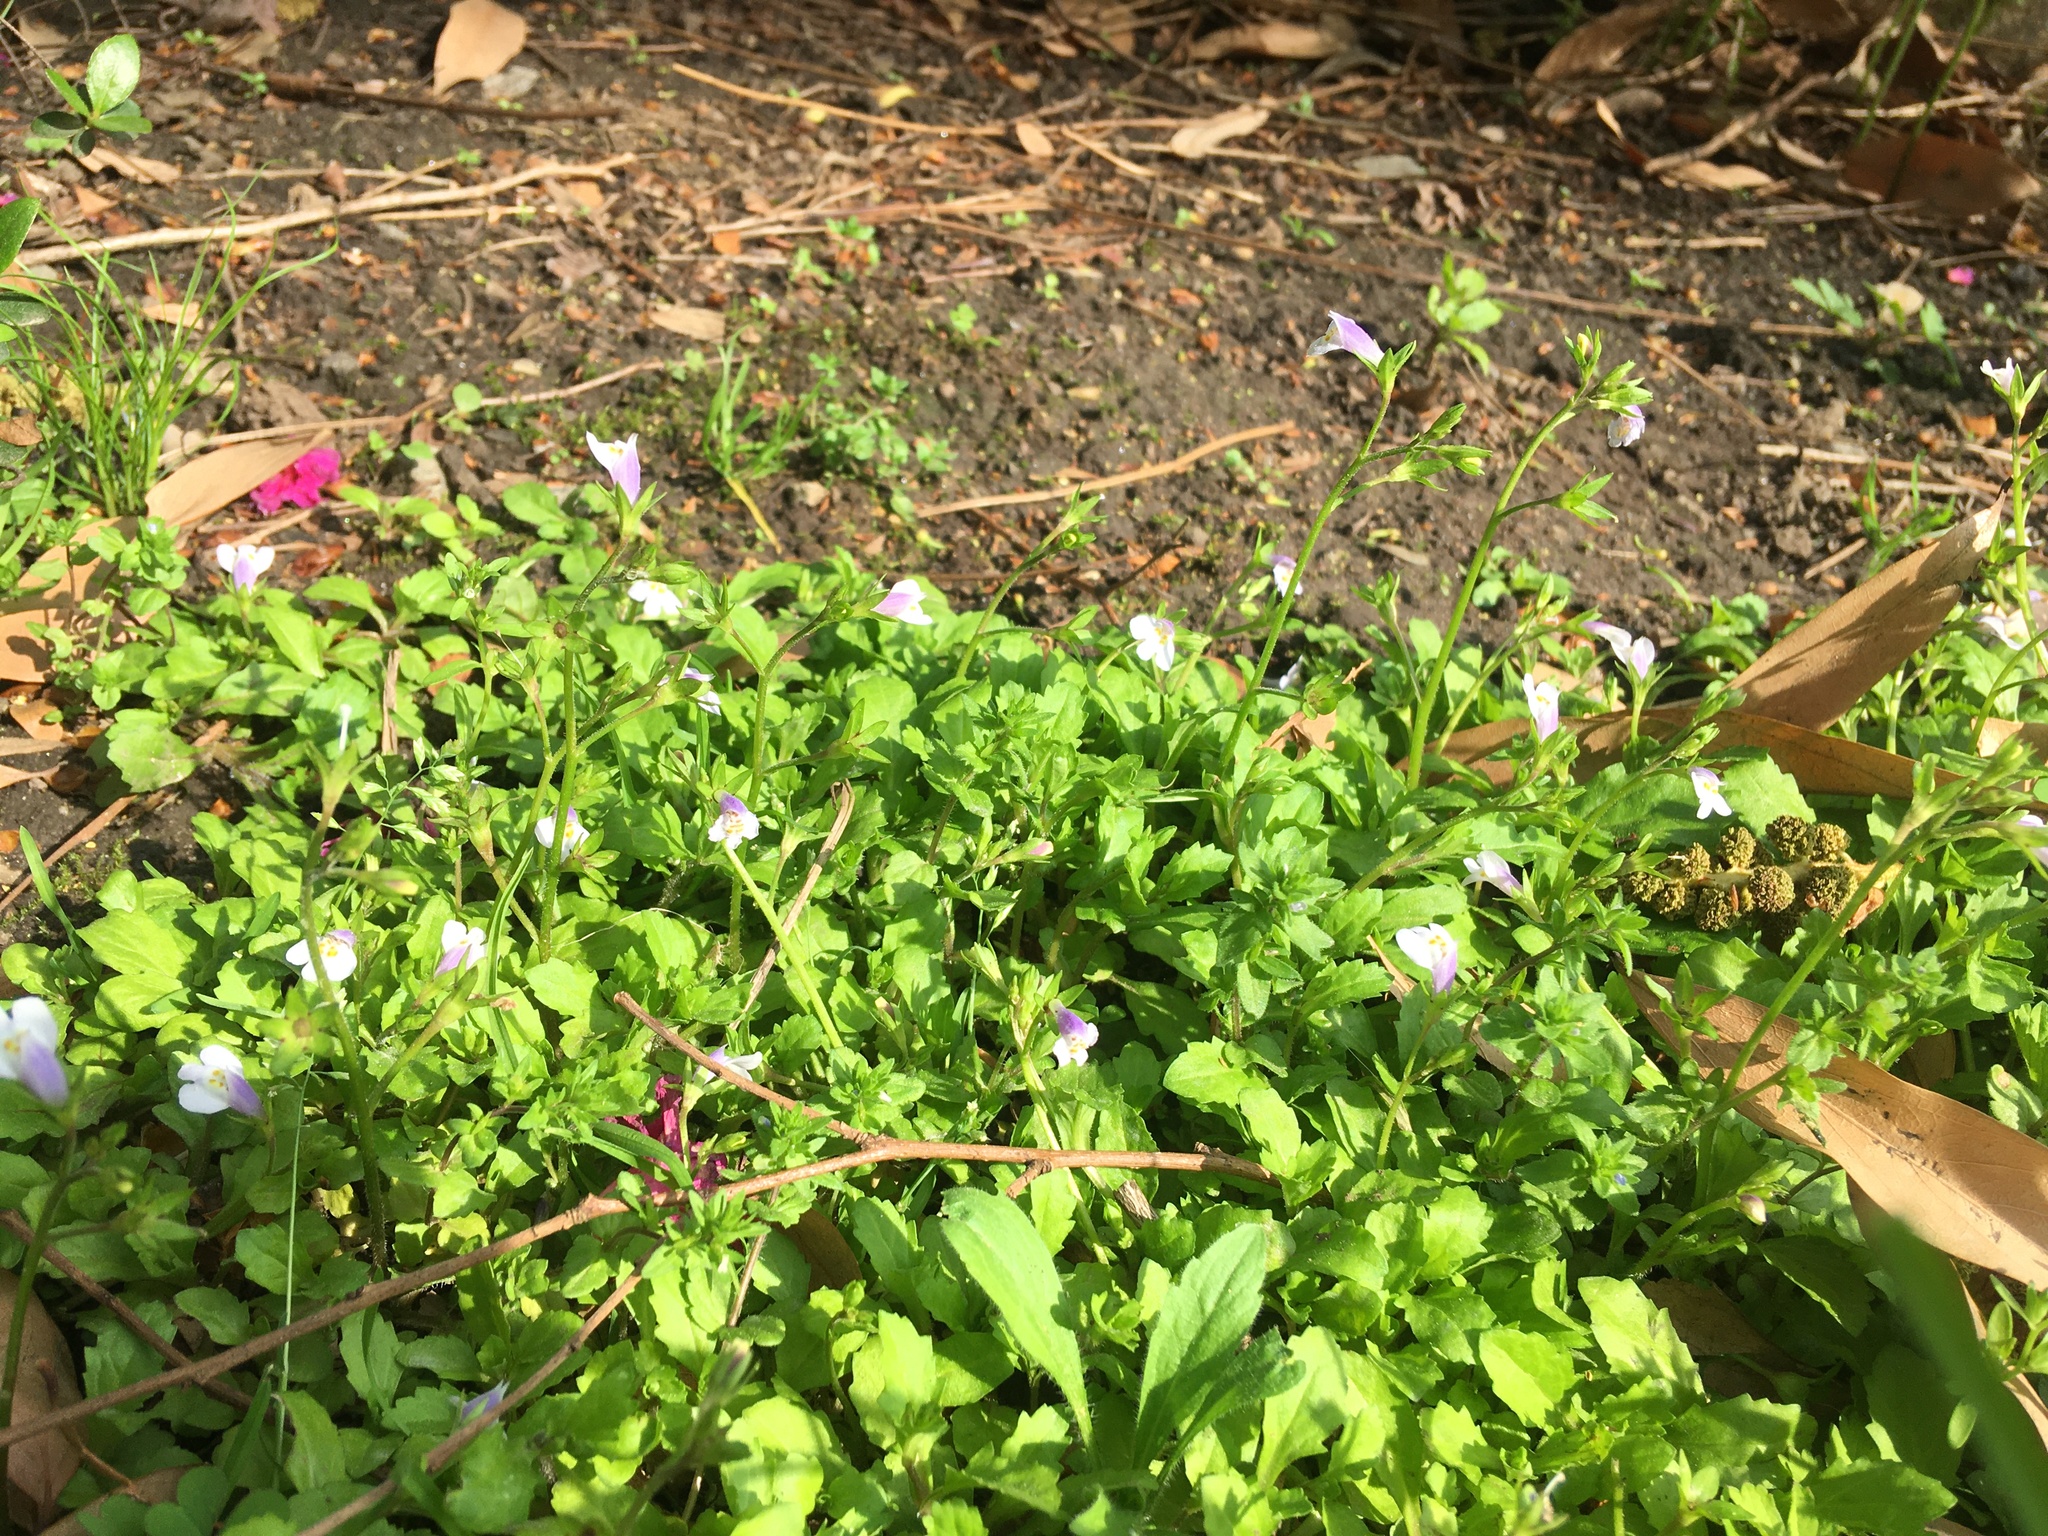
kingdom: Plantae
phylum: Tracheophyta
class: Magnoliopsida
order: Lamiales
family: Mazaceae
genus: Mazus
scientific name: Mazus pumilus
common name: Japanese mazus
